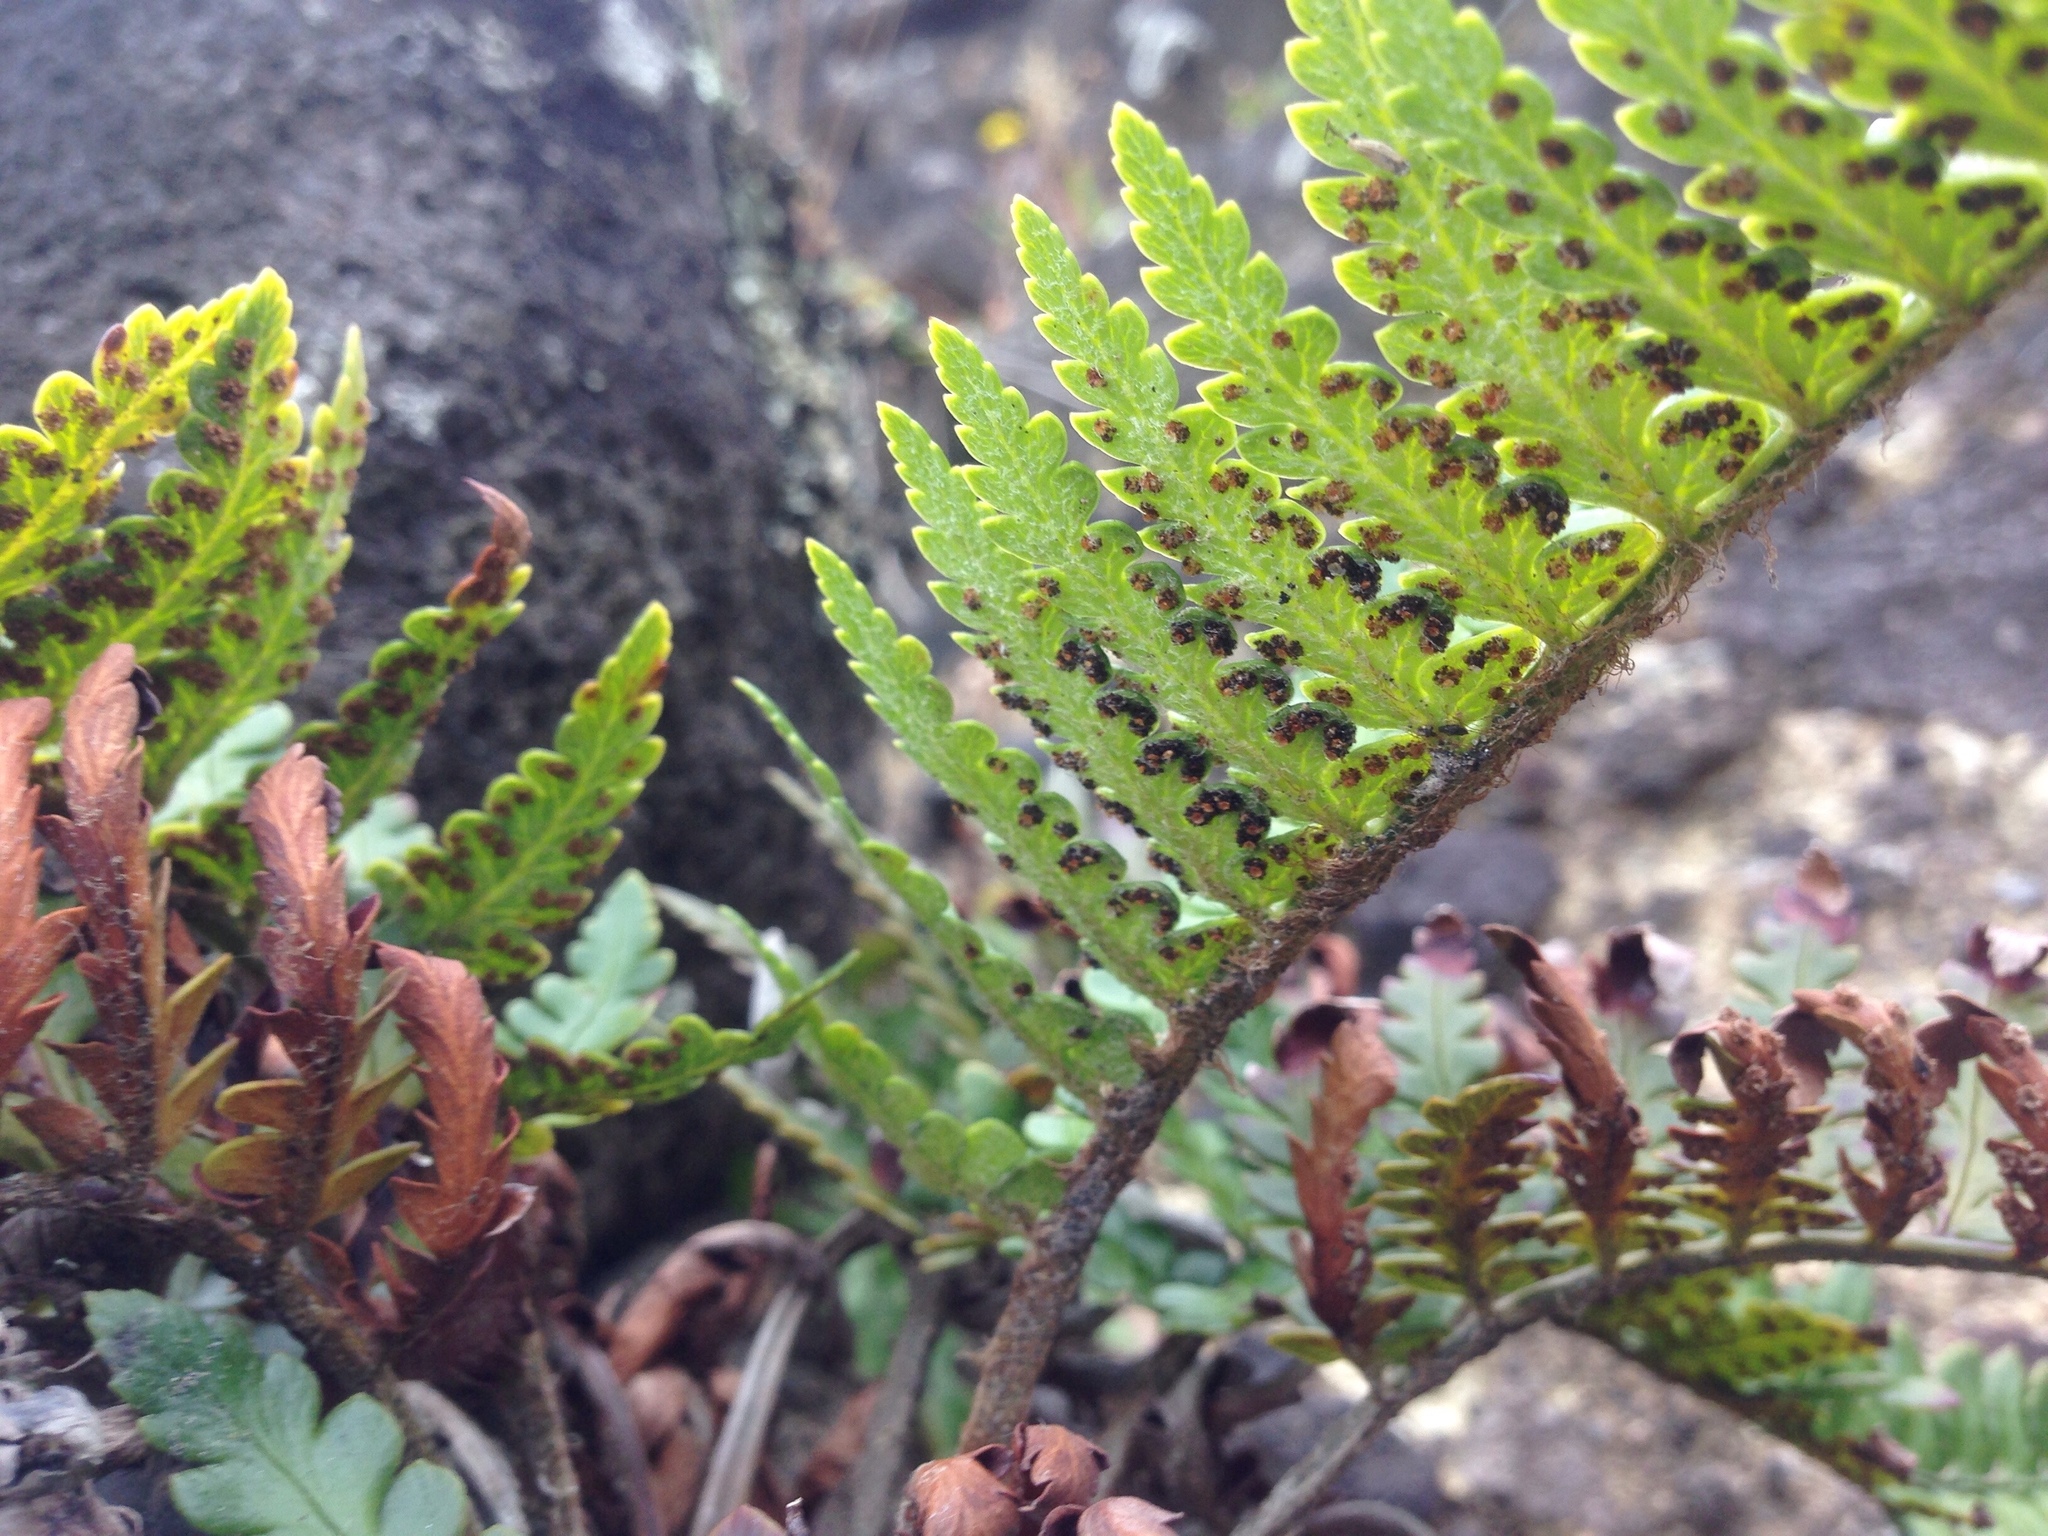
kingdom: Plantae
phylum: Tracheophyta
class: Polypodiopsida
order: Polypodiales
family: Dryopteridaceae
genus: Polystichum
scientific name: Polystichum wawranum
